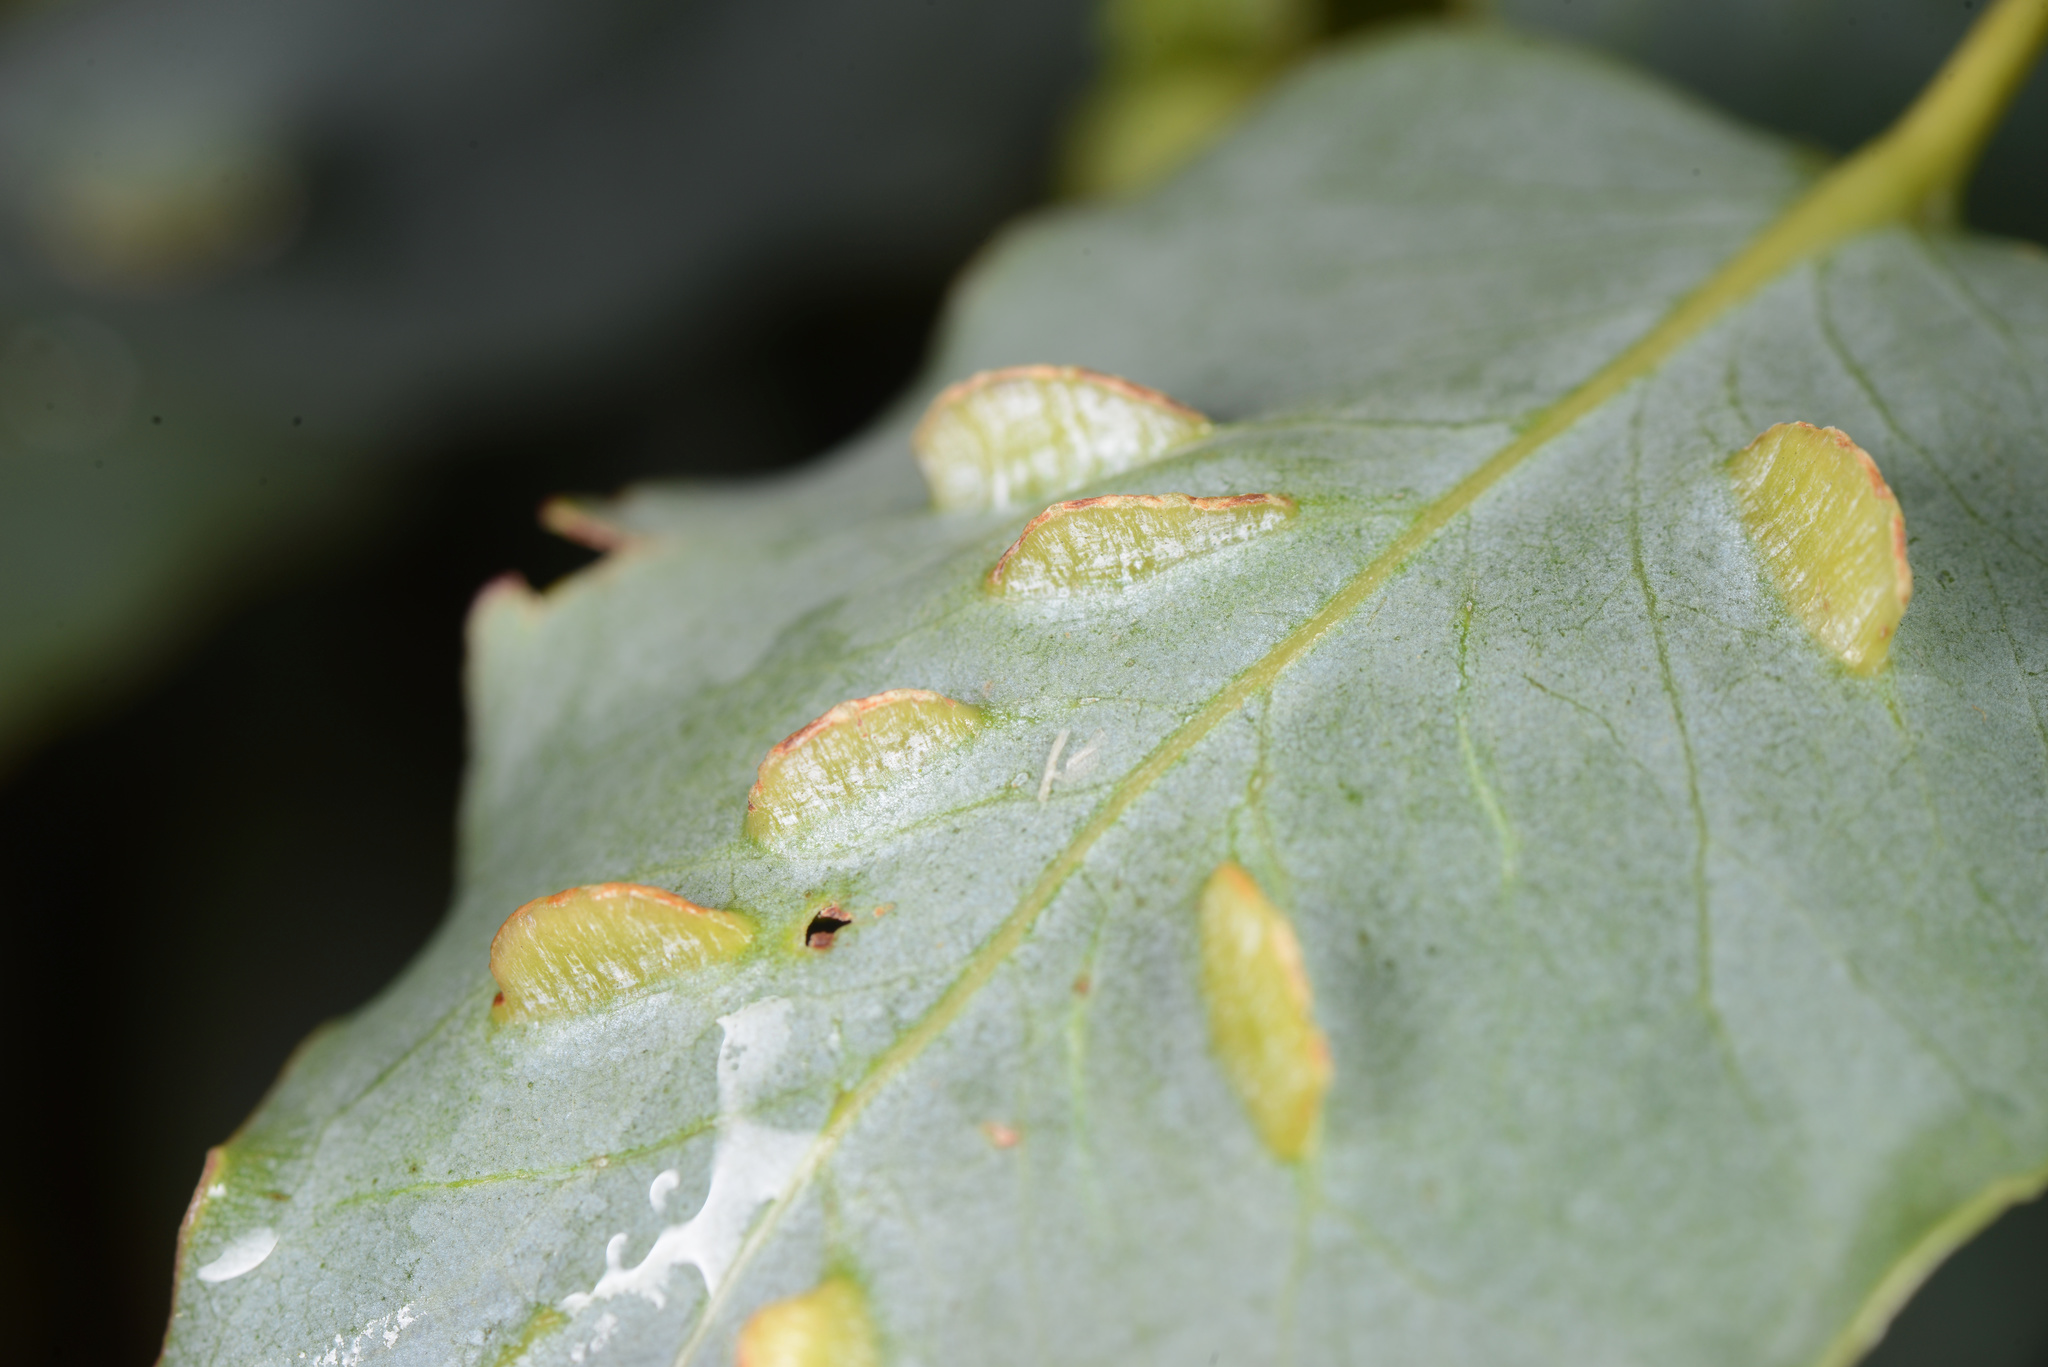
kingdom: Animalia
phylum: Arthropoda
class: Insecta
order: Hymenoptera
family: Pteromalidae
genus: Nambouria
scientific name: Nambouria xanthops
